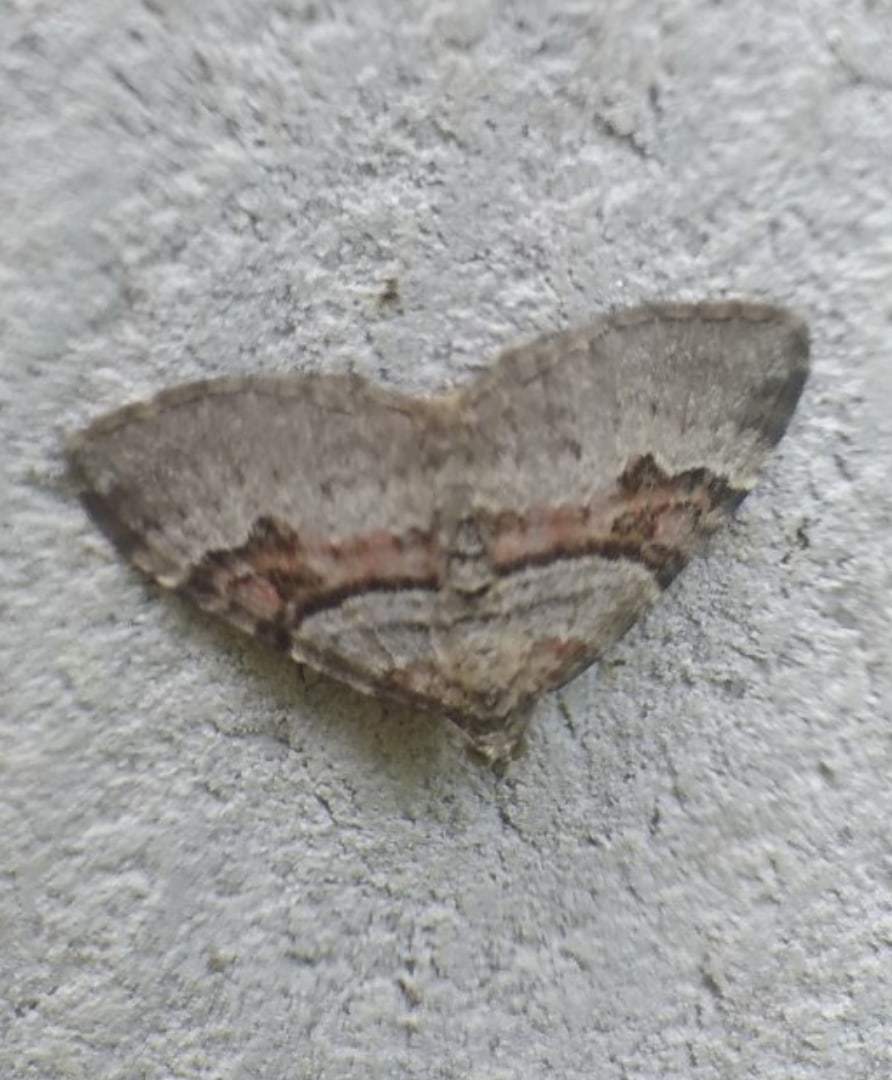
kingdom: Animalia
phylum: Arthropoda
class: Insecta
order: Lepidoptera
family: Geometridae
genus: Xanthorhoe
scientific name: Xanthorhoe designata
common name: Flame carpet
